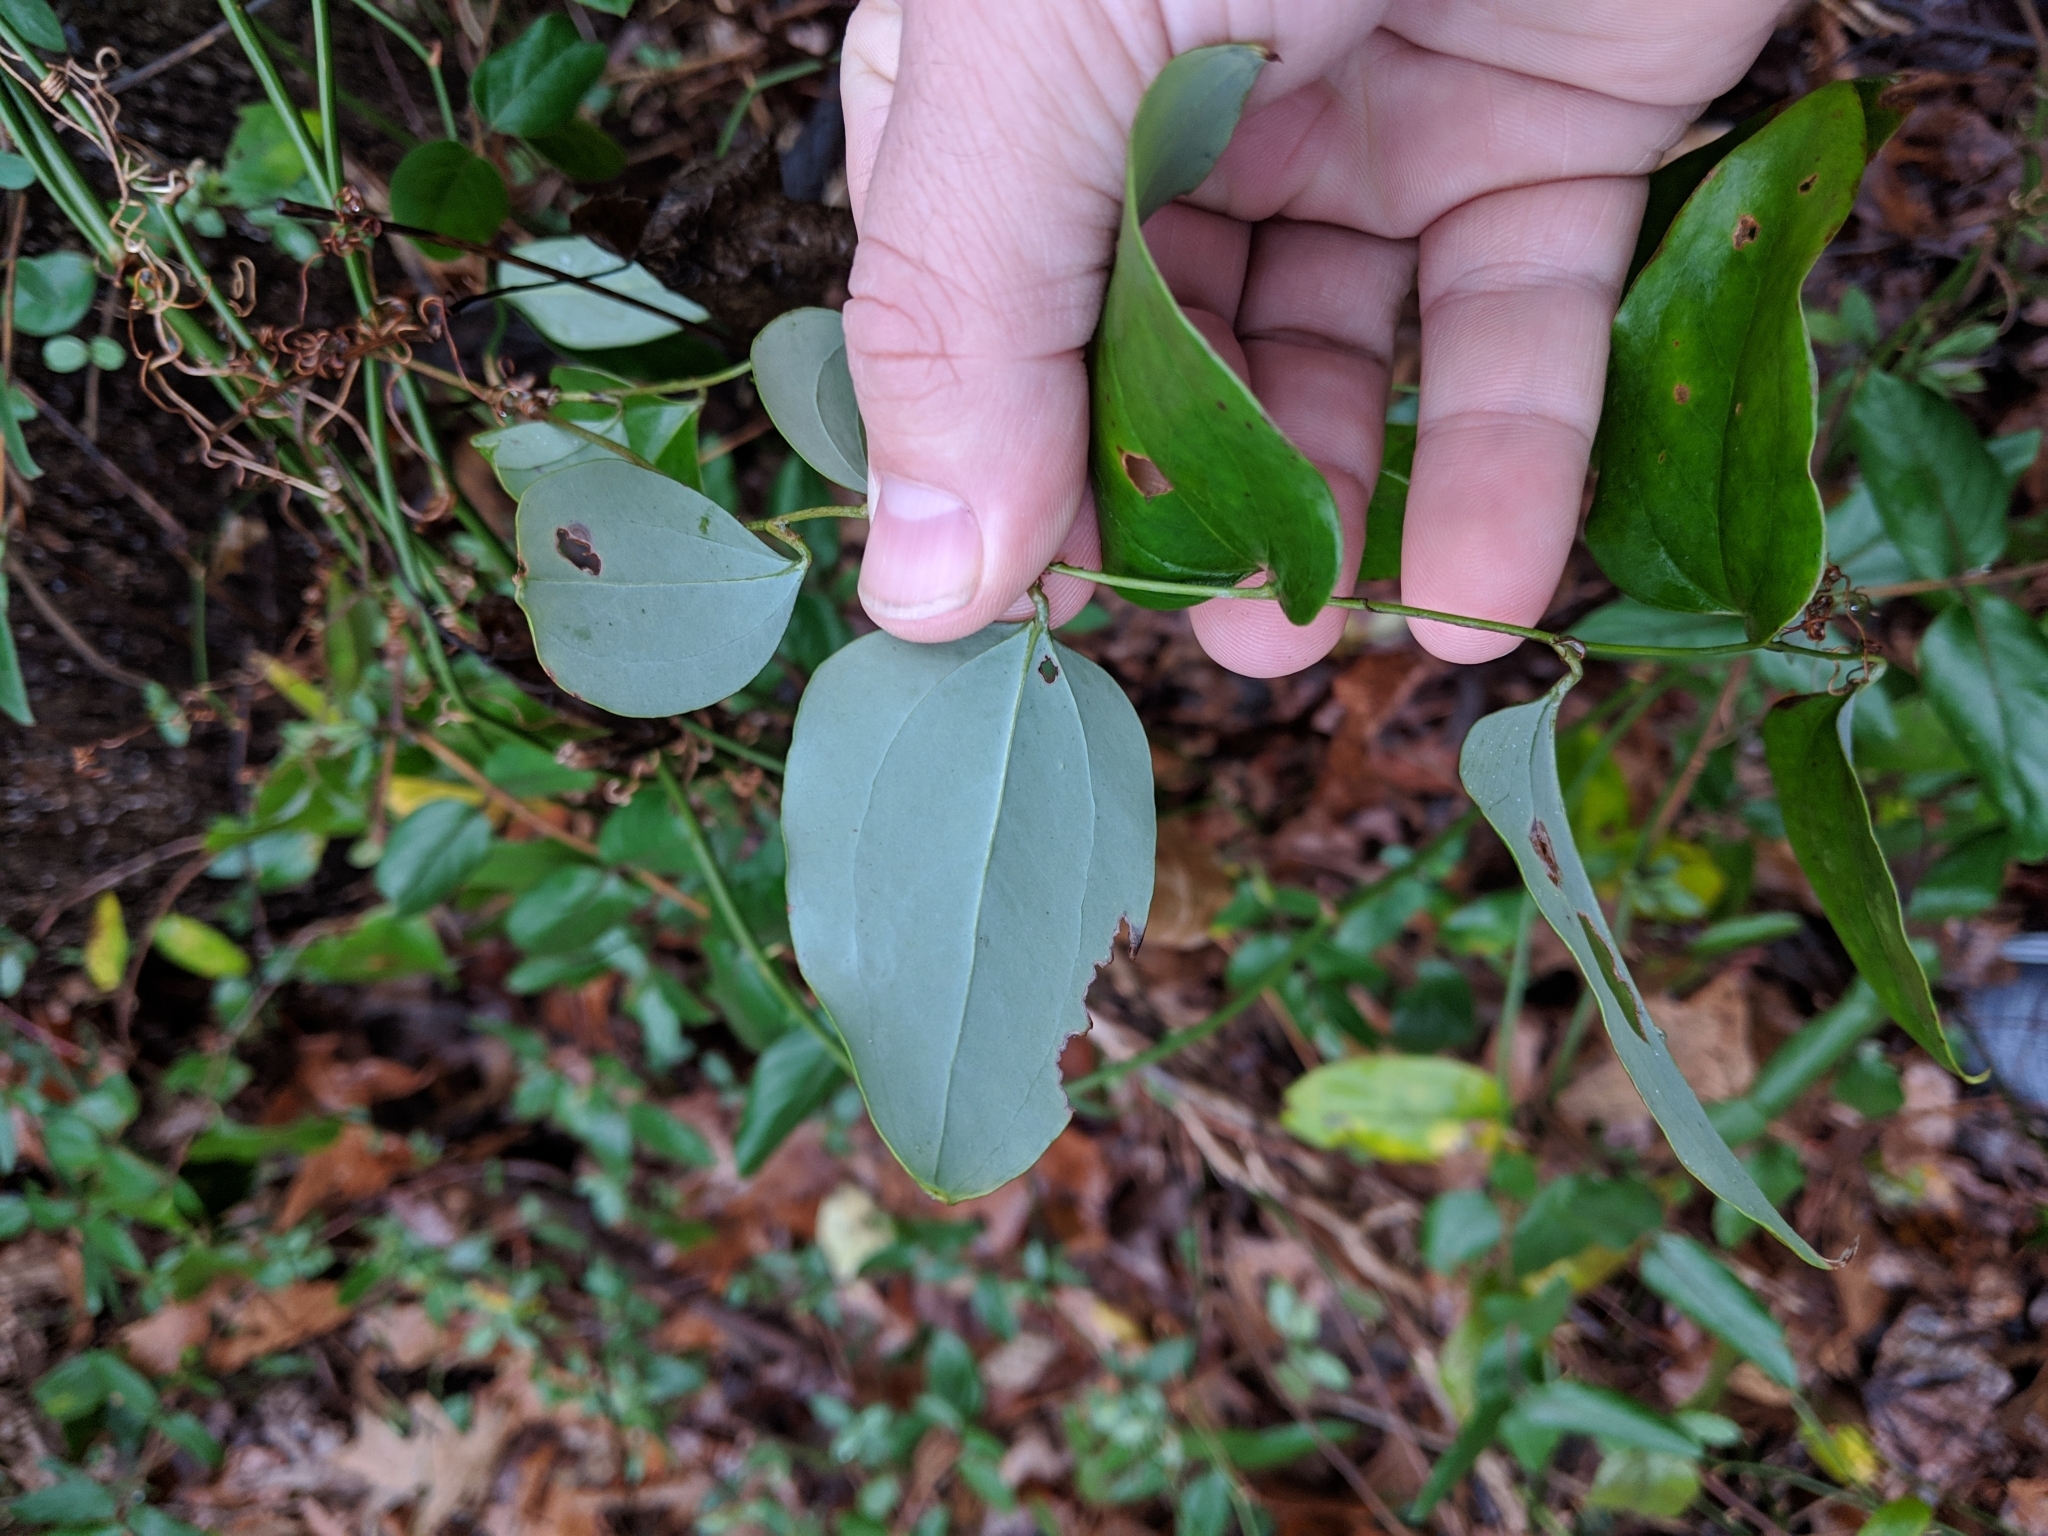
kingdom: Plantae
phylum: Tracheophyta
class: Liliopsida
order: Liliales
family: Smilacaceae
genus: Smilax
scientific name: Smilax glauca
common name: Cat greenbrier
